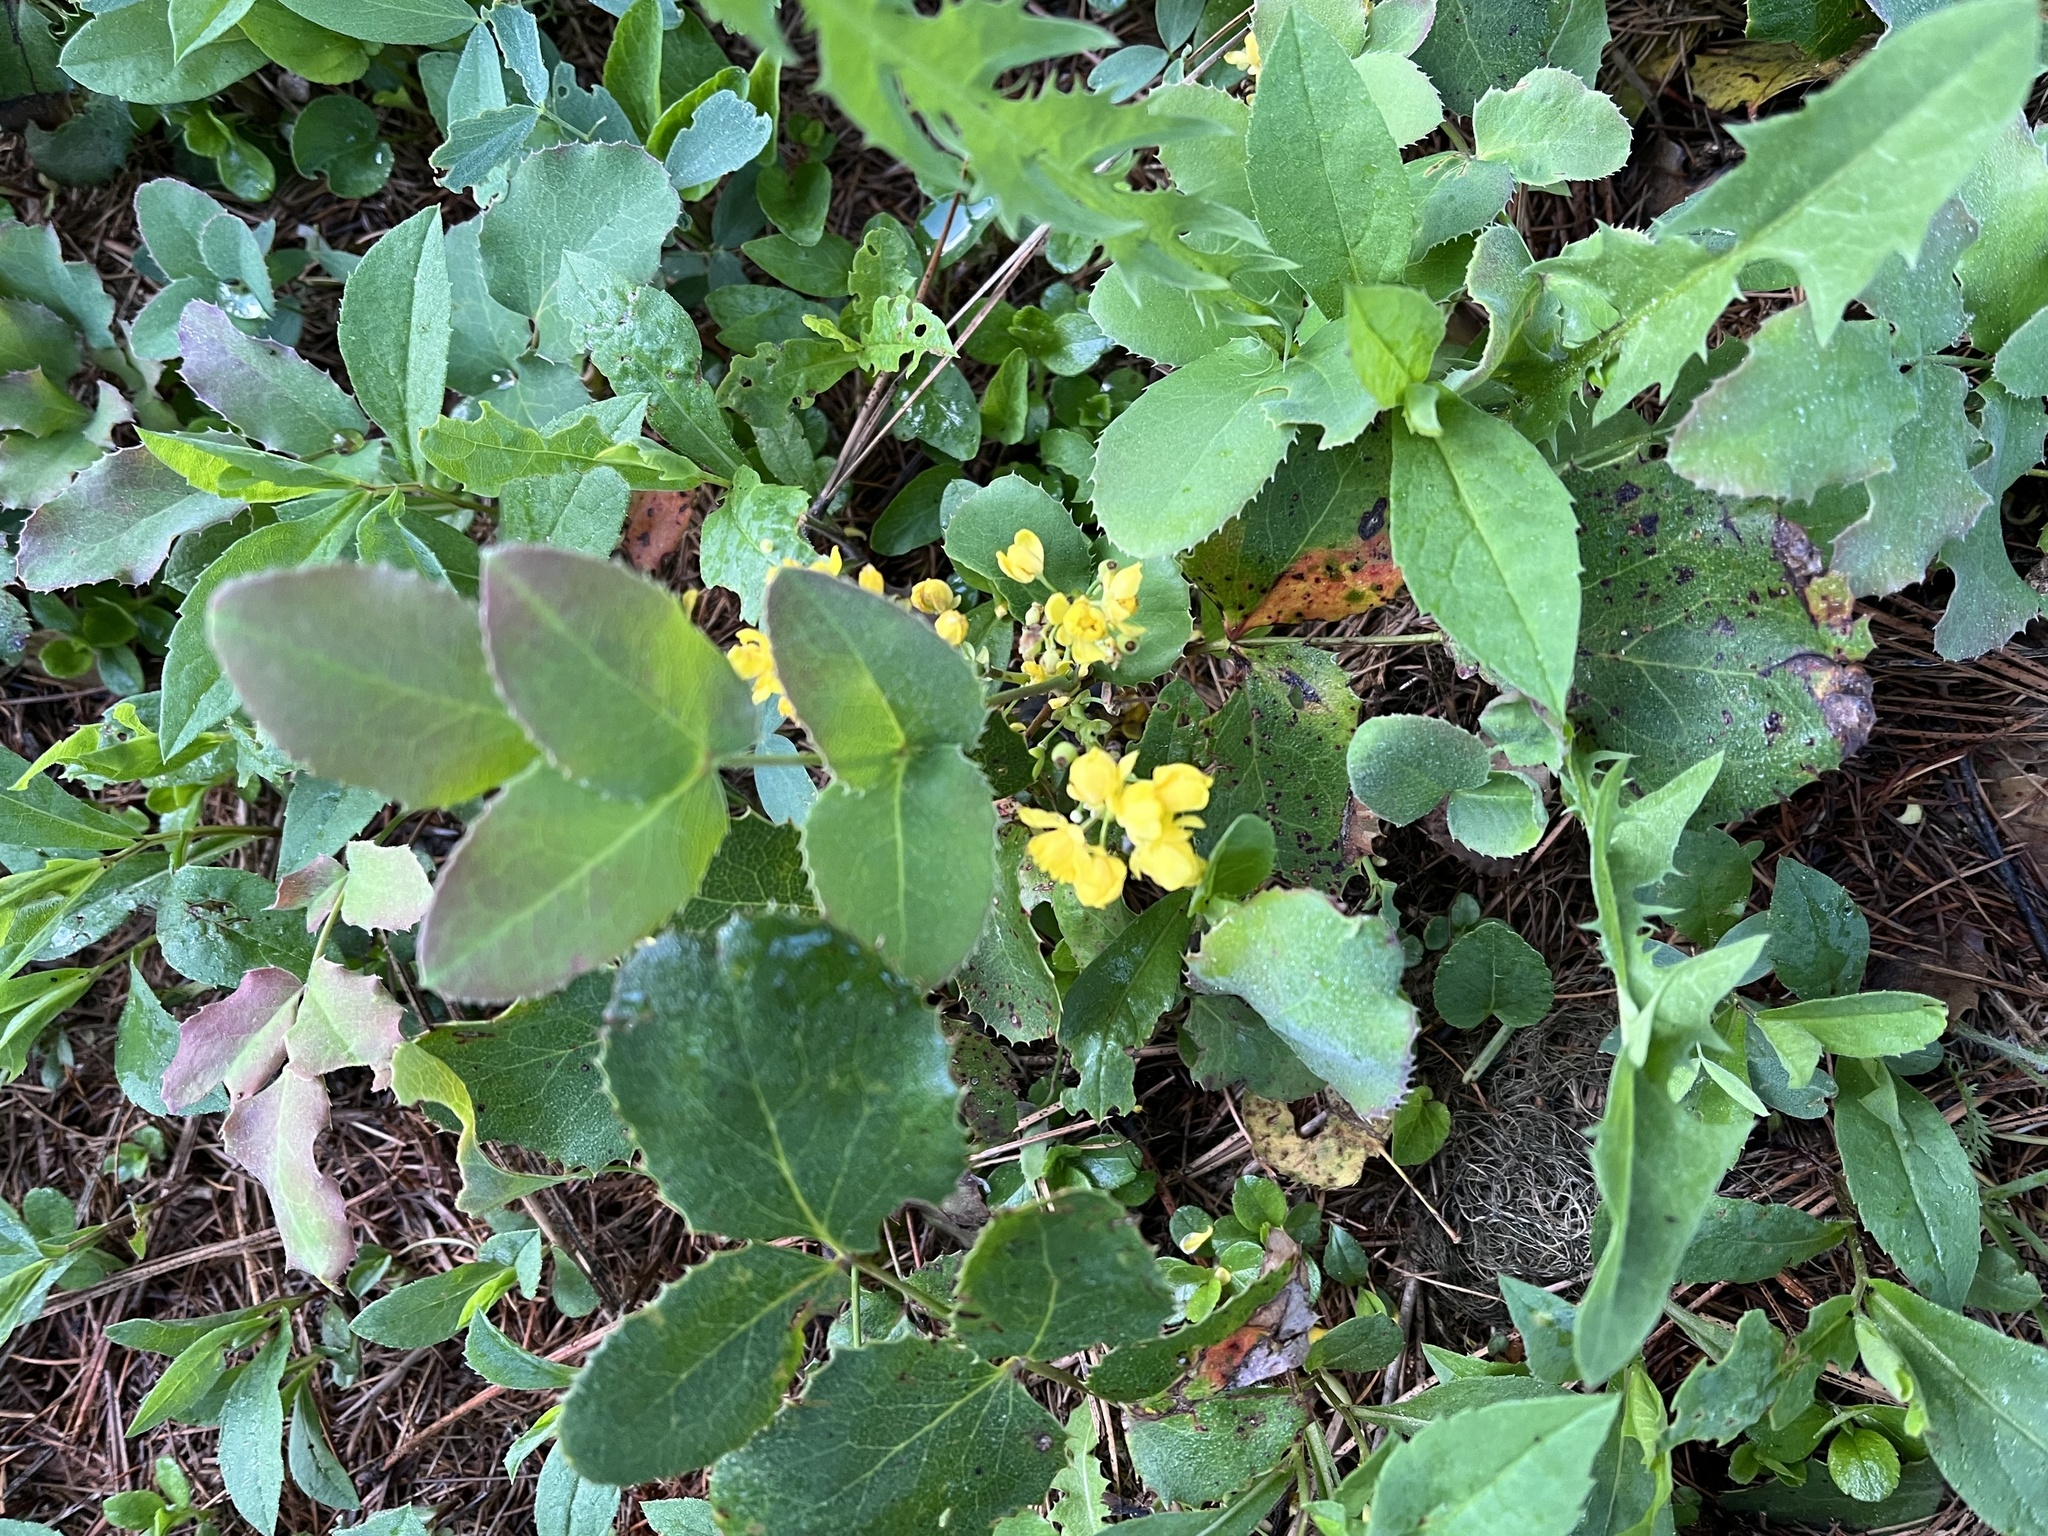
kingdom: Plantae
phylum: Tracheophyta
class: Magnoliopsida
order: Ranunculales
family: Berberidaceae
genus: Mahonia
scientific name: Mahonia repens
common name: Creeping oregon-grape
